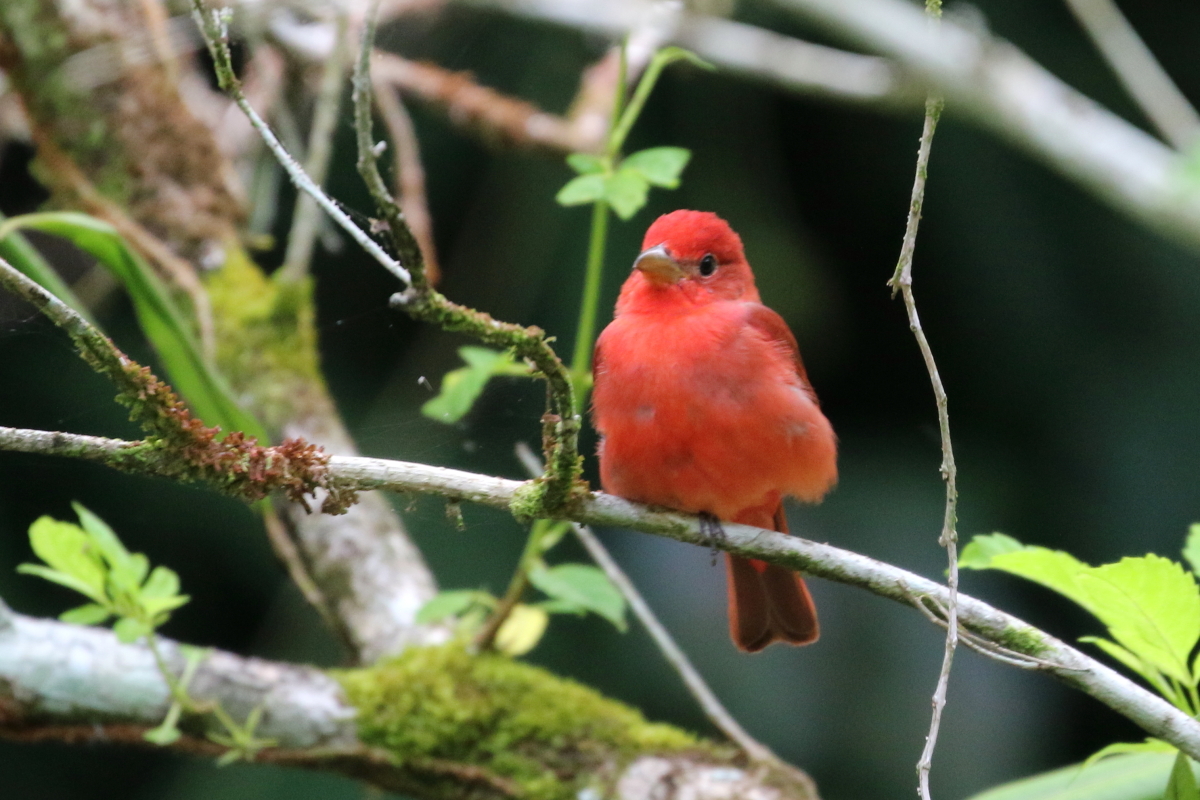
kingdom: Animalia
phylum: Chordata
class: Aves
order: Passeriformes
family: Cardinalidae
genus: Piranga
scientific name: Piranga rubra
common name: Summer tanager
